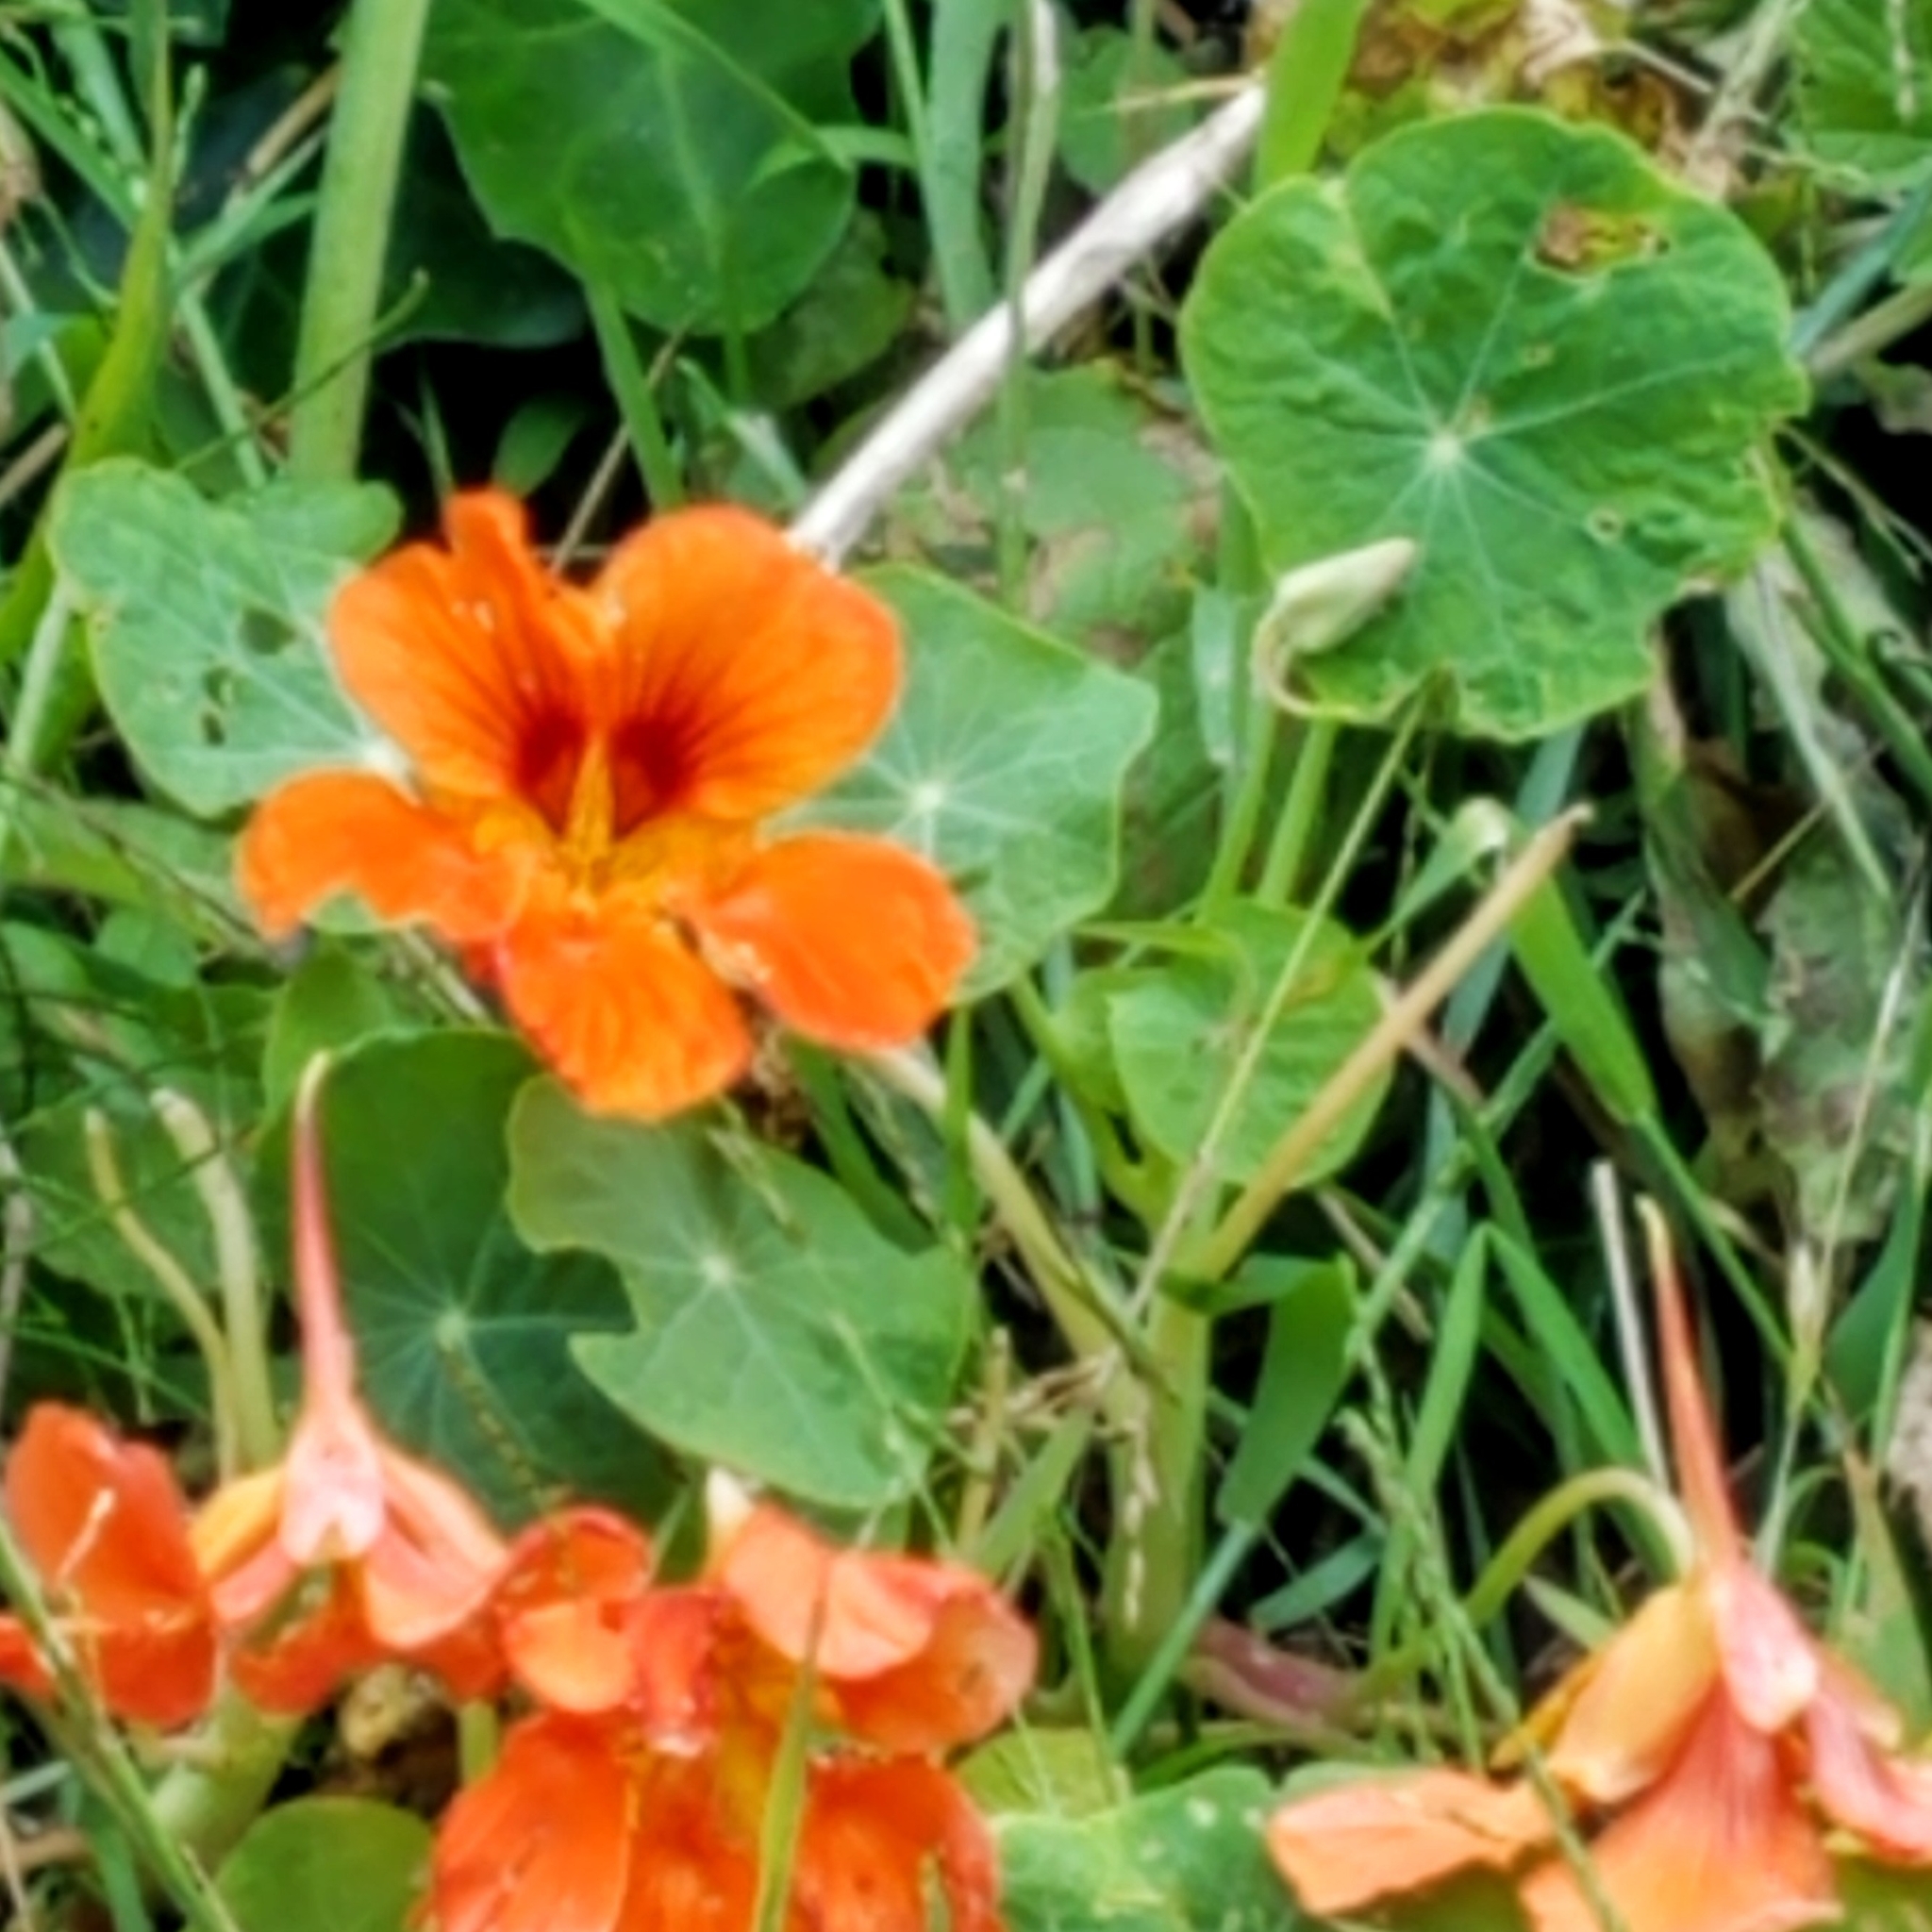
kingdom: Plantae
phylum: Tracheophyta
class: Magnoliopsida
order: Brassicales
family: Tropaeolaceae
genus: Tropaeolum
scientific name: Tropaeolum majus
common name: Nasturtium
